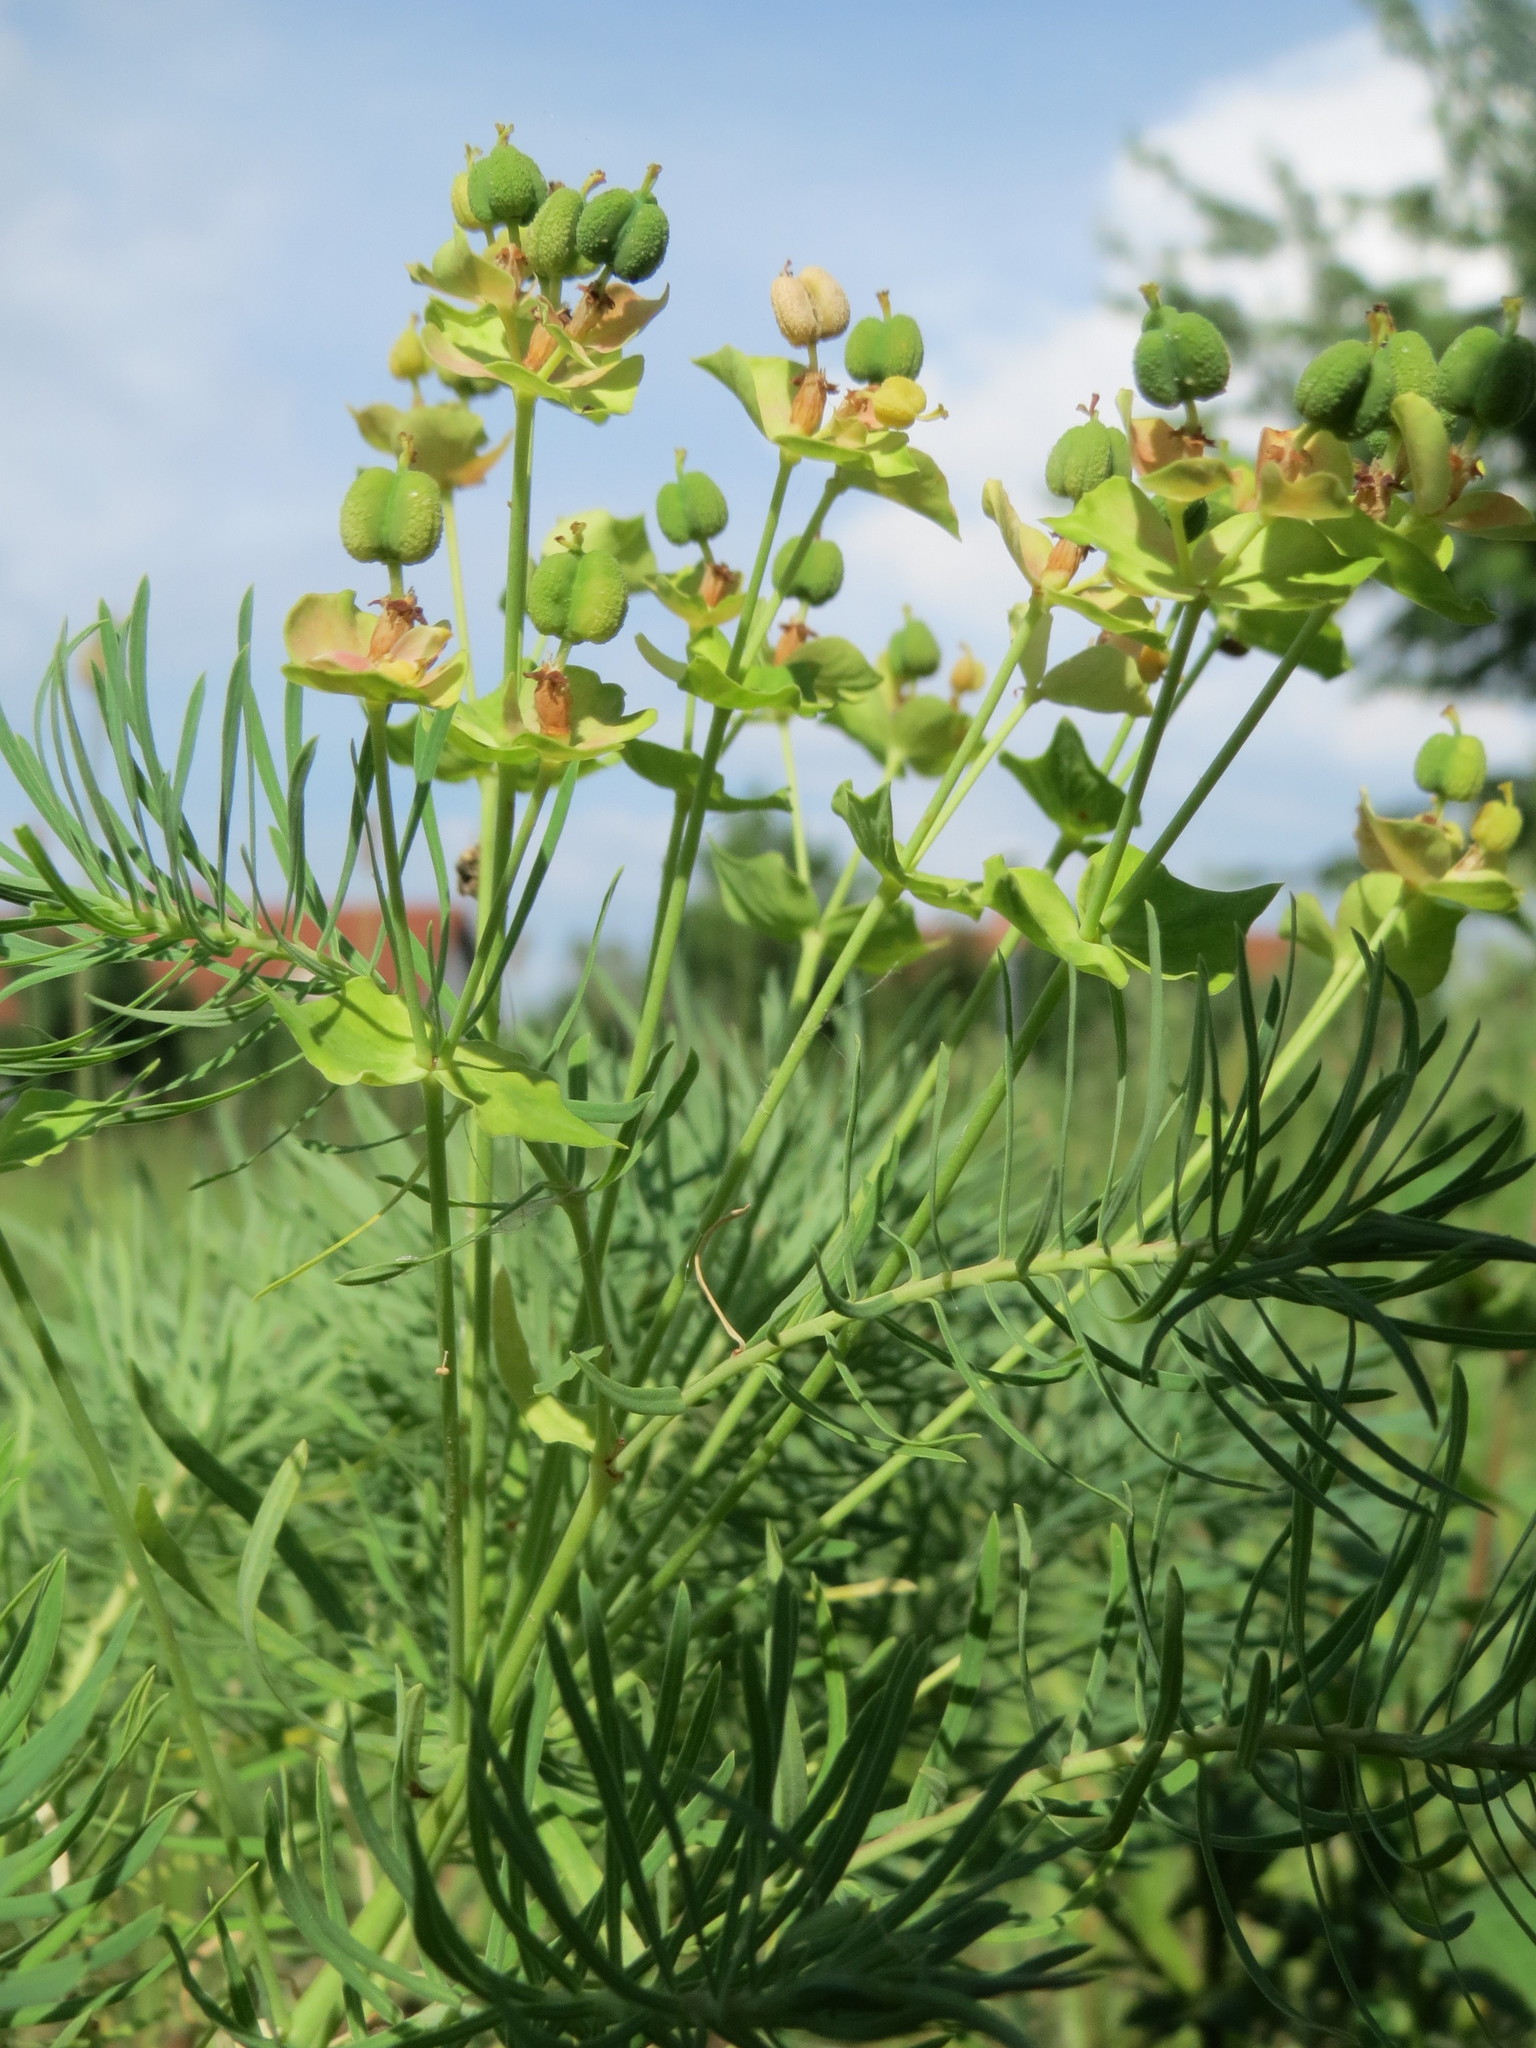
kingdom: Plantae
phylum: Tracheophyta
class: Magnoliopsida
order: Malpighiales
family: Euphorbiaceae
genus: Euphorbia
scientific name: Euphorbia cyparissias
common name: Cypress spurge
